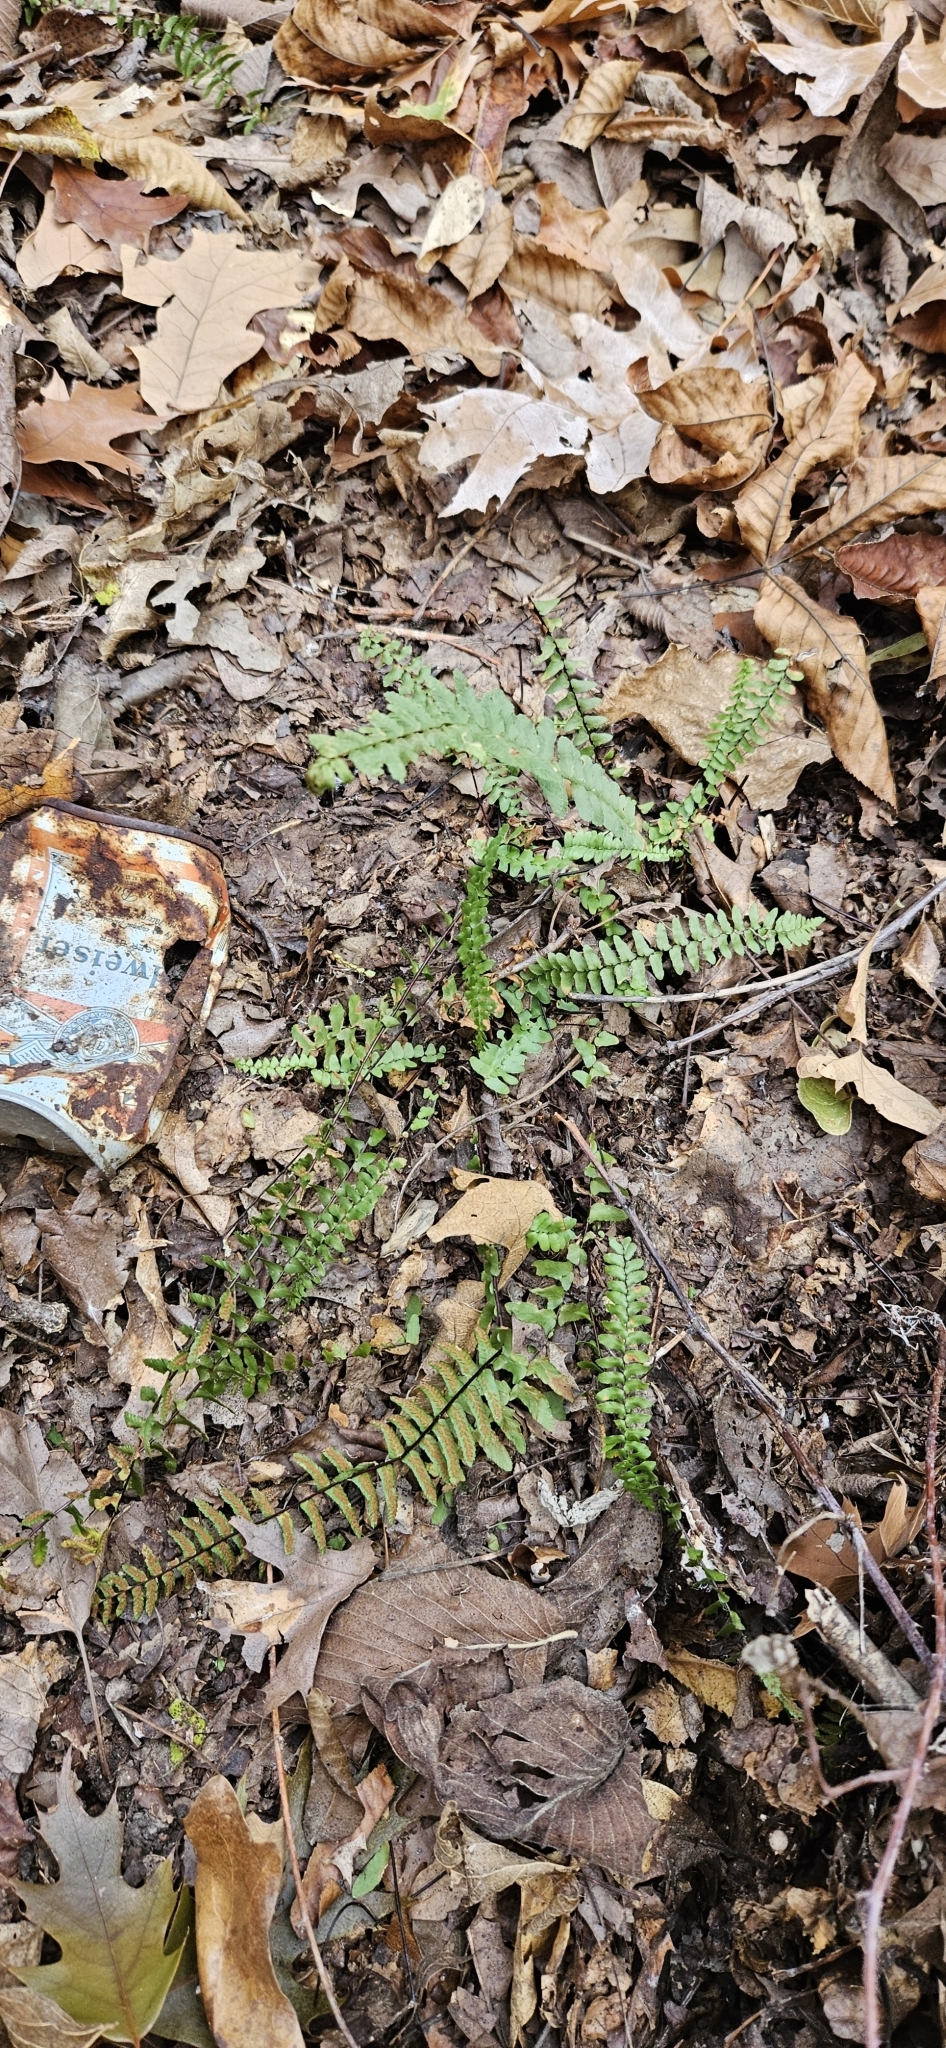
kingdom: Plantae
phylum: Tracheophyta
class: Polypodiopsida
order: Polypodiales
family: Aspleniaceae
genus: Asplenium
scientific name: Asplenium platyneuron
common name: Ebony spleenwort
